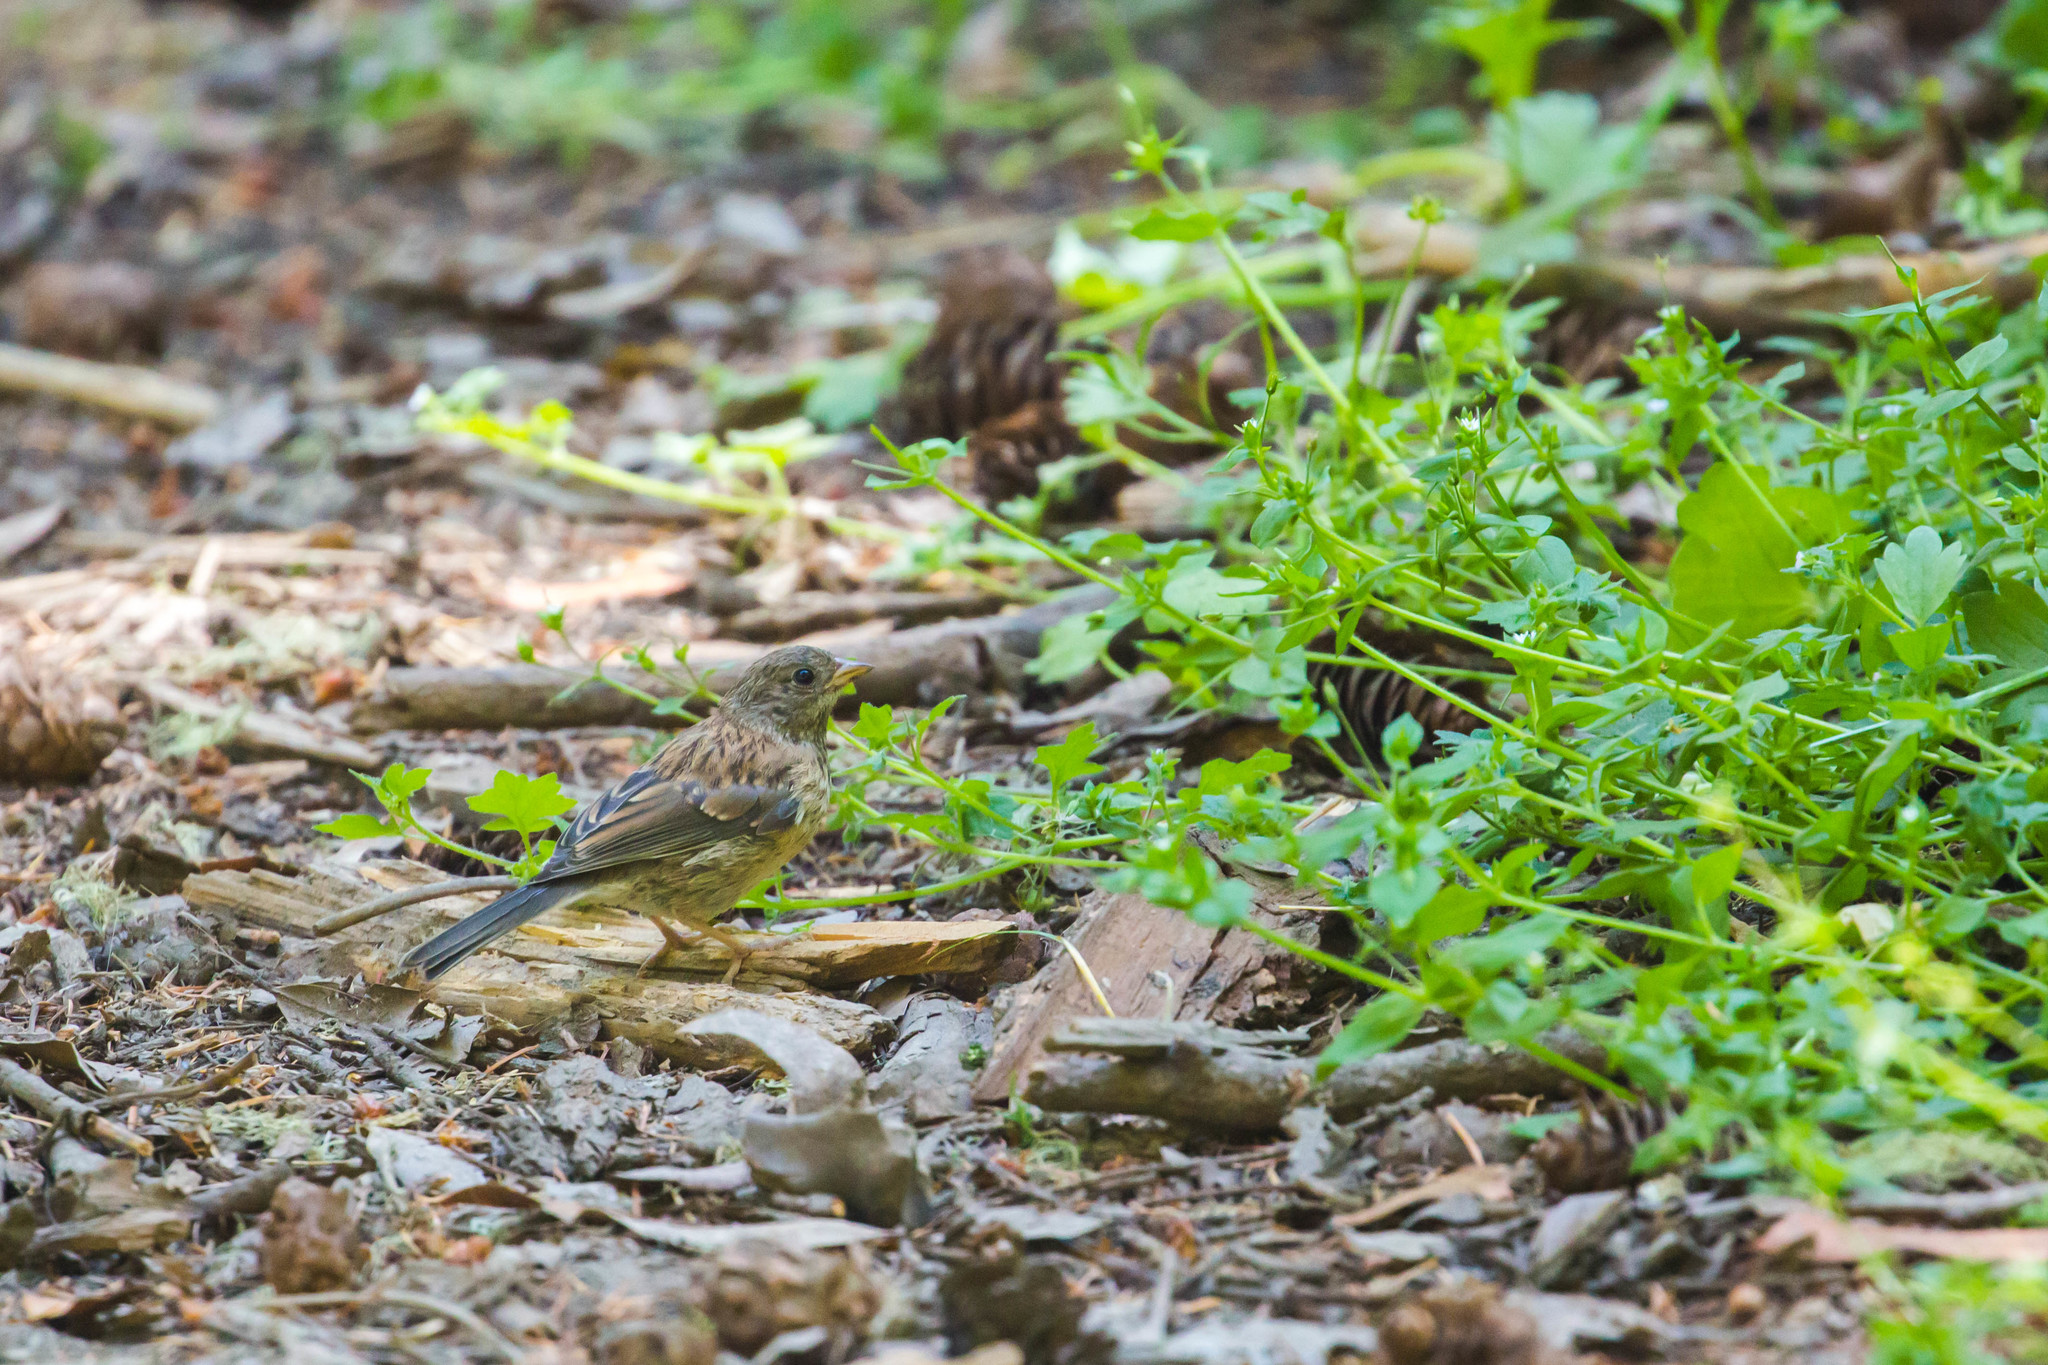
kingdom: Animalia
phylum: Chordata
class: Aves
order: Passeriformes
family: Passerellidae
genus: Junco
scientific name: Junco hyemalis
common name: Dark-eyed junco
